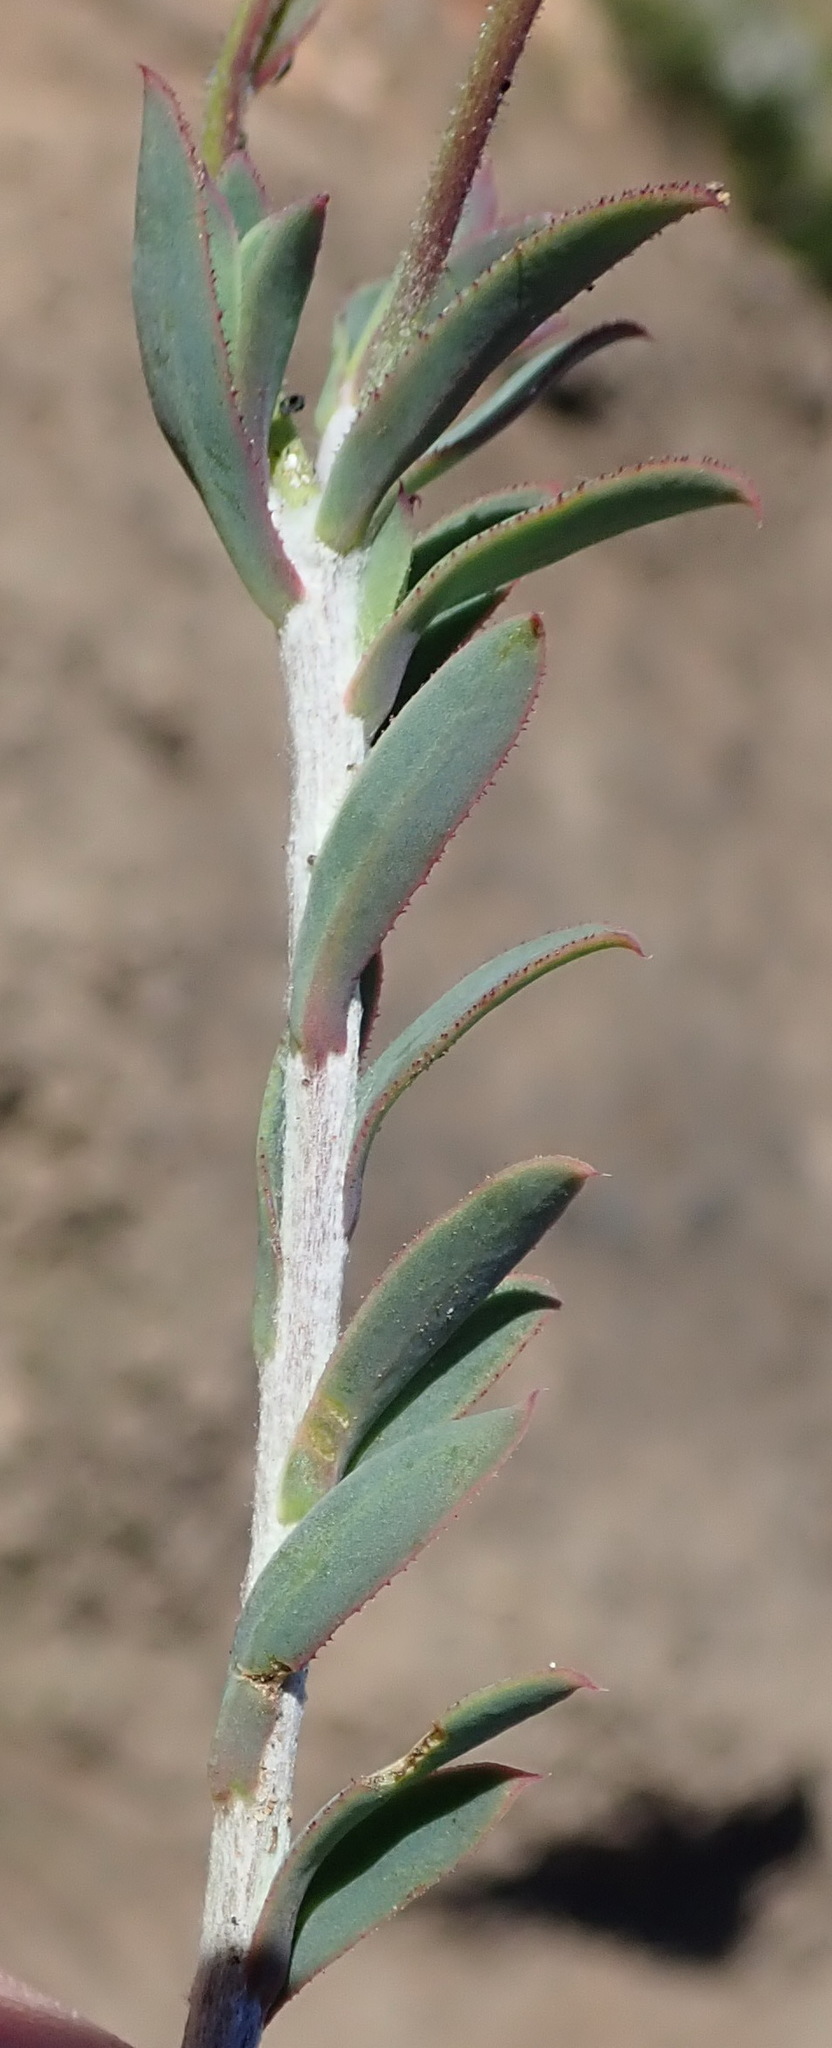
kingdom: Plantae
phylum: Tracheophyta
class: Magnoliopsida
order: Asterales
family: Asteraceae
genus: Osteospermum
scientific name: Osteospermum polygaloides
